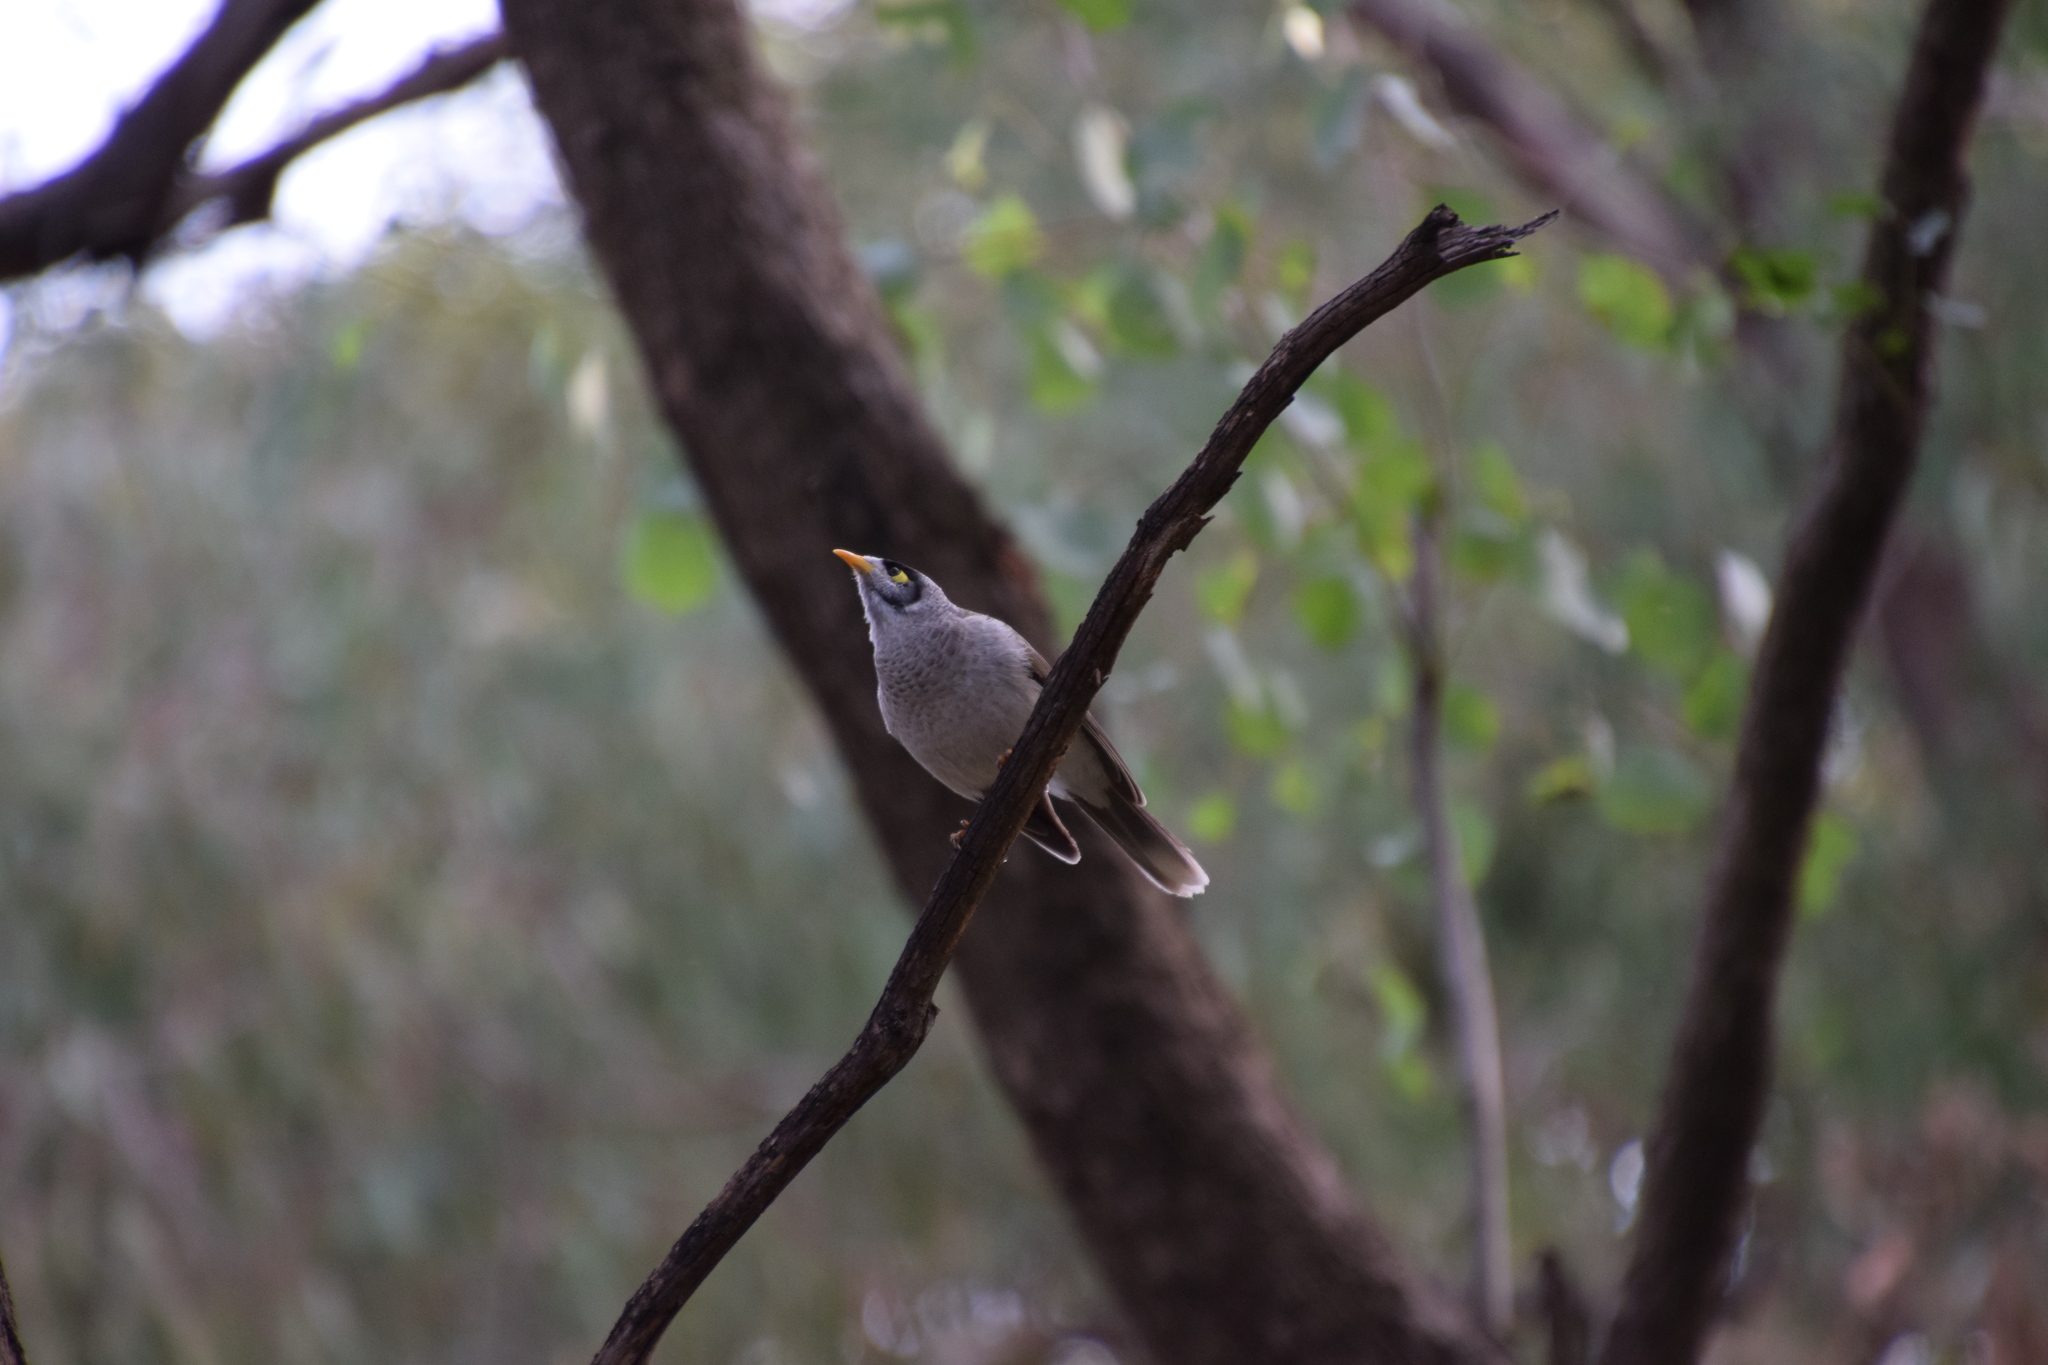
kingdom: Animalia
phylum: Chordata
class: Aves
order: Passeriformes
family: Meliphagidae
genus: Manorina
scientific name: Manorina melanocephala
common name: Noisy miner
